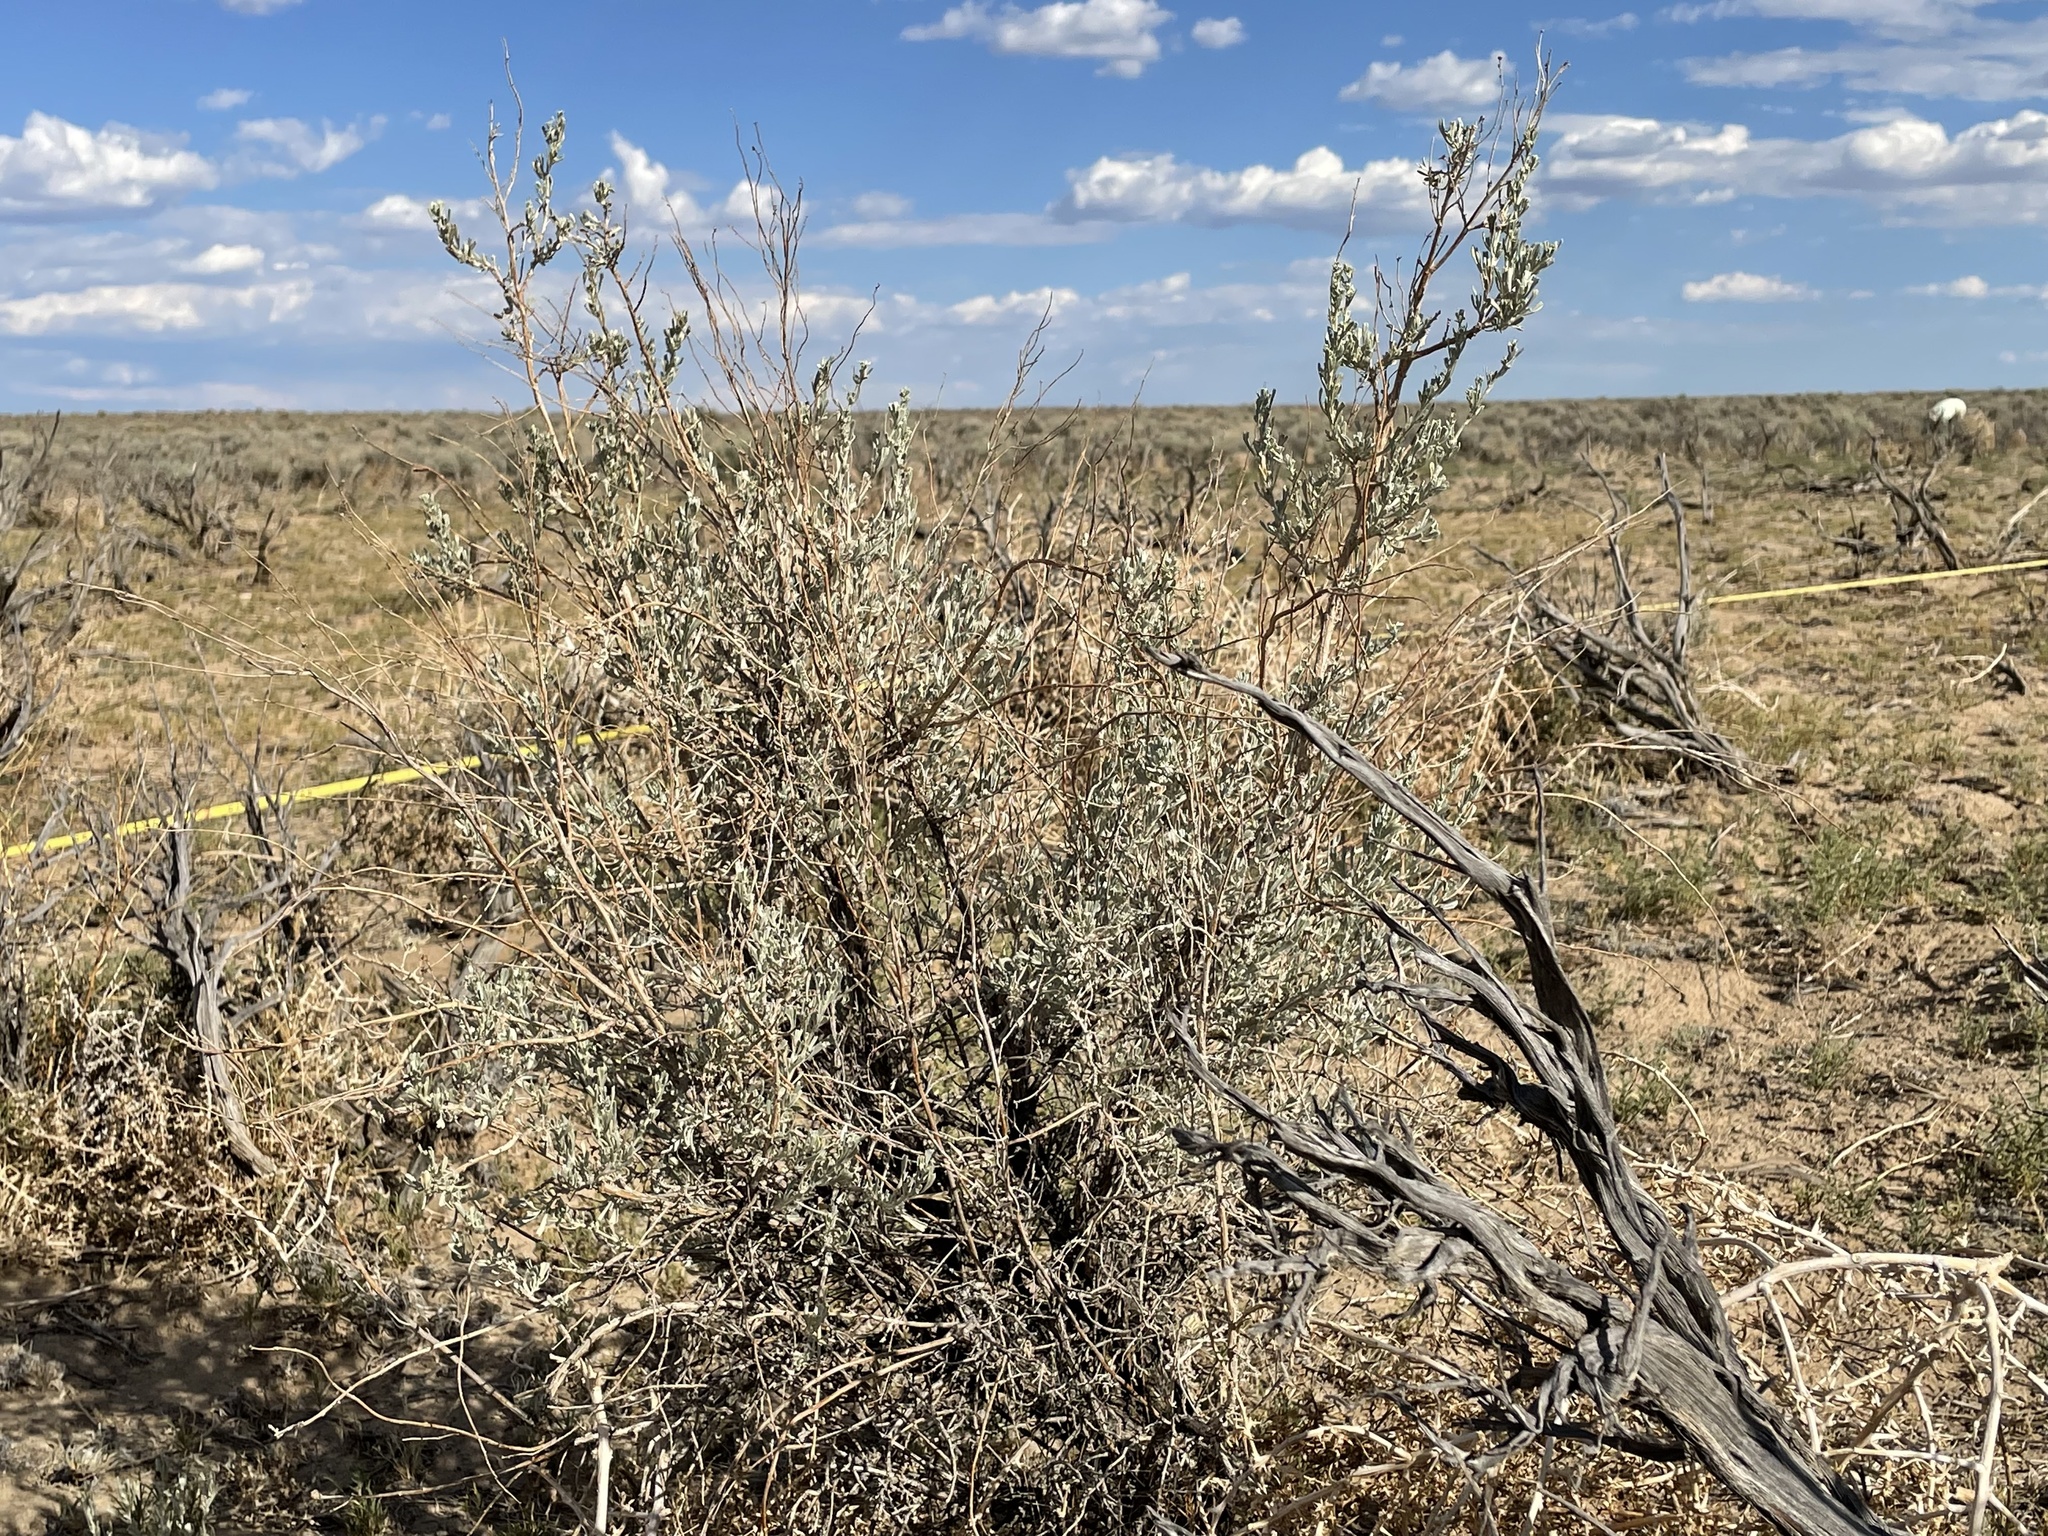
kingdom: Plantae
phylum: Tracheophyta
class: Magnoliopsida
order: Asterales
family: Asteraceae
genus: Artemisia
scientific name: Artemisia tridentata
